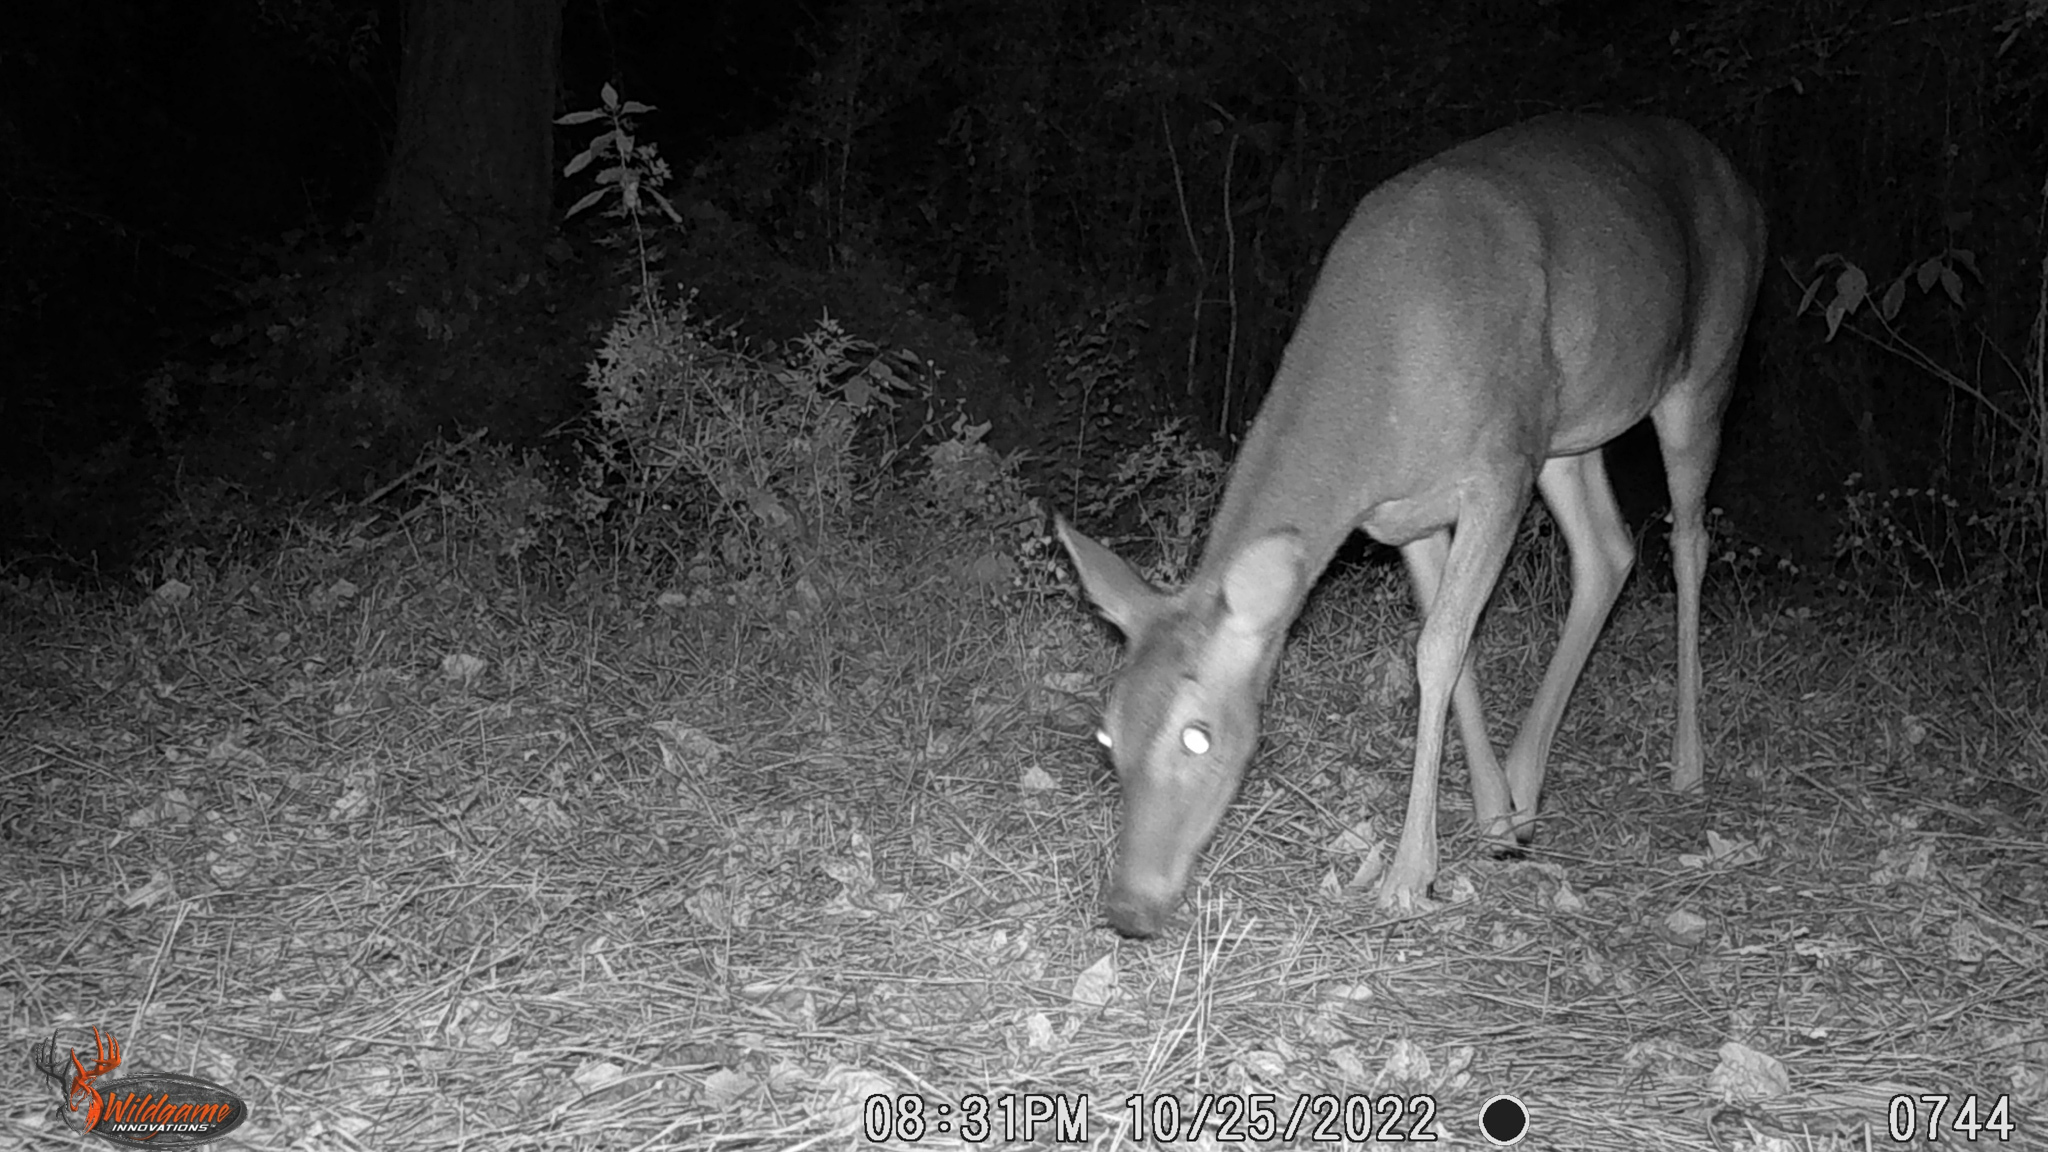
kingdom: Animalia
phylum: Chordata
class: Mammalia
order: Artiodactyla
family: Cervidae
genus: Odocoileus
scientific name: Odocoileus virginianus
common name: White-tailed deer
